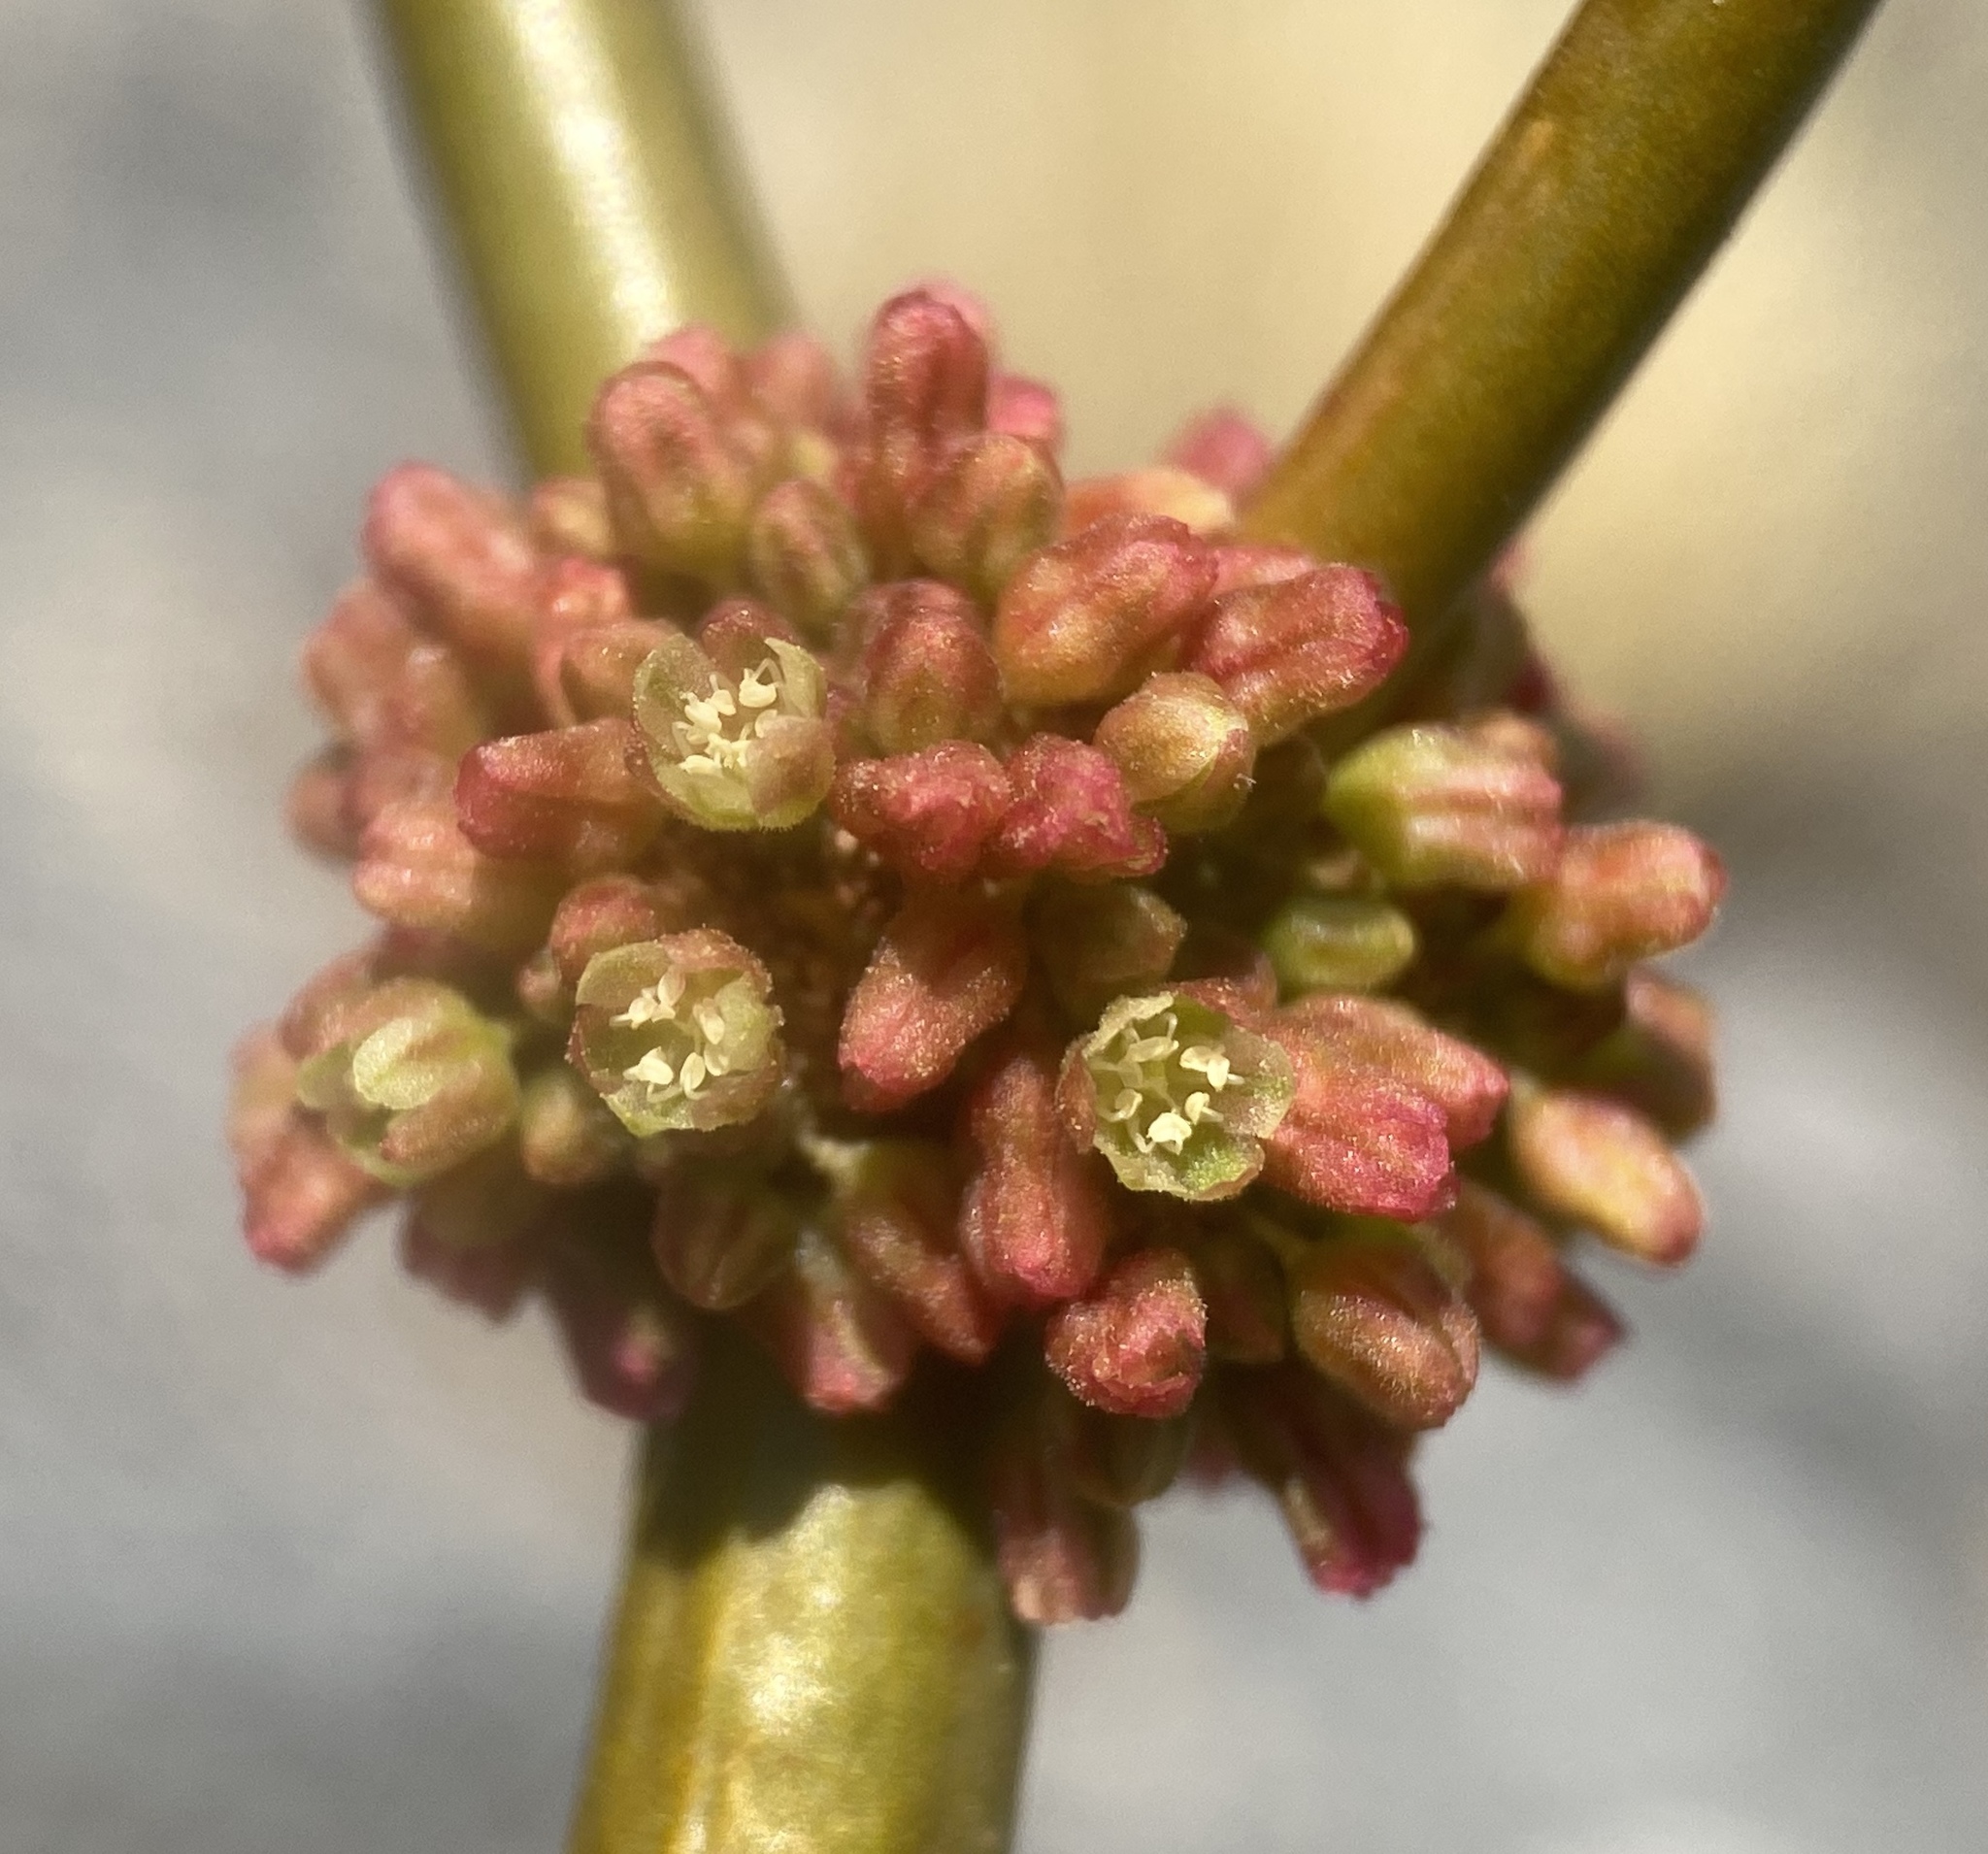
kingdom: Plantae
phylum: Tracheophyta
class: Magnoliopsida
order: Caryophyllales
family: Polygonaceae
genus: Eriogonum
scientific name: Eriogonum intrafractum
